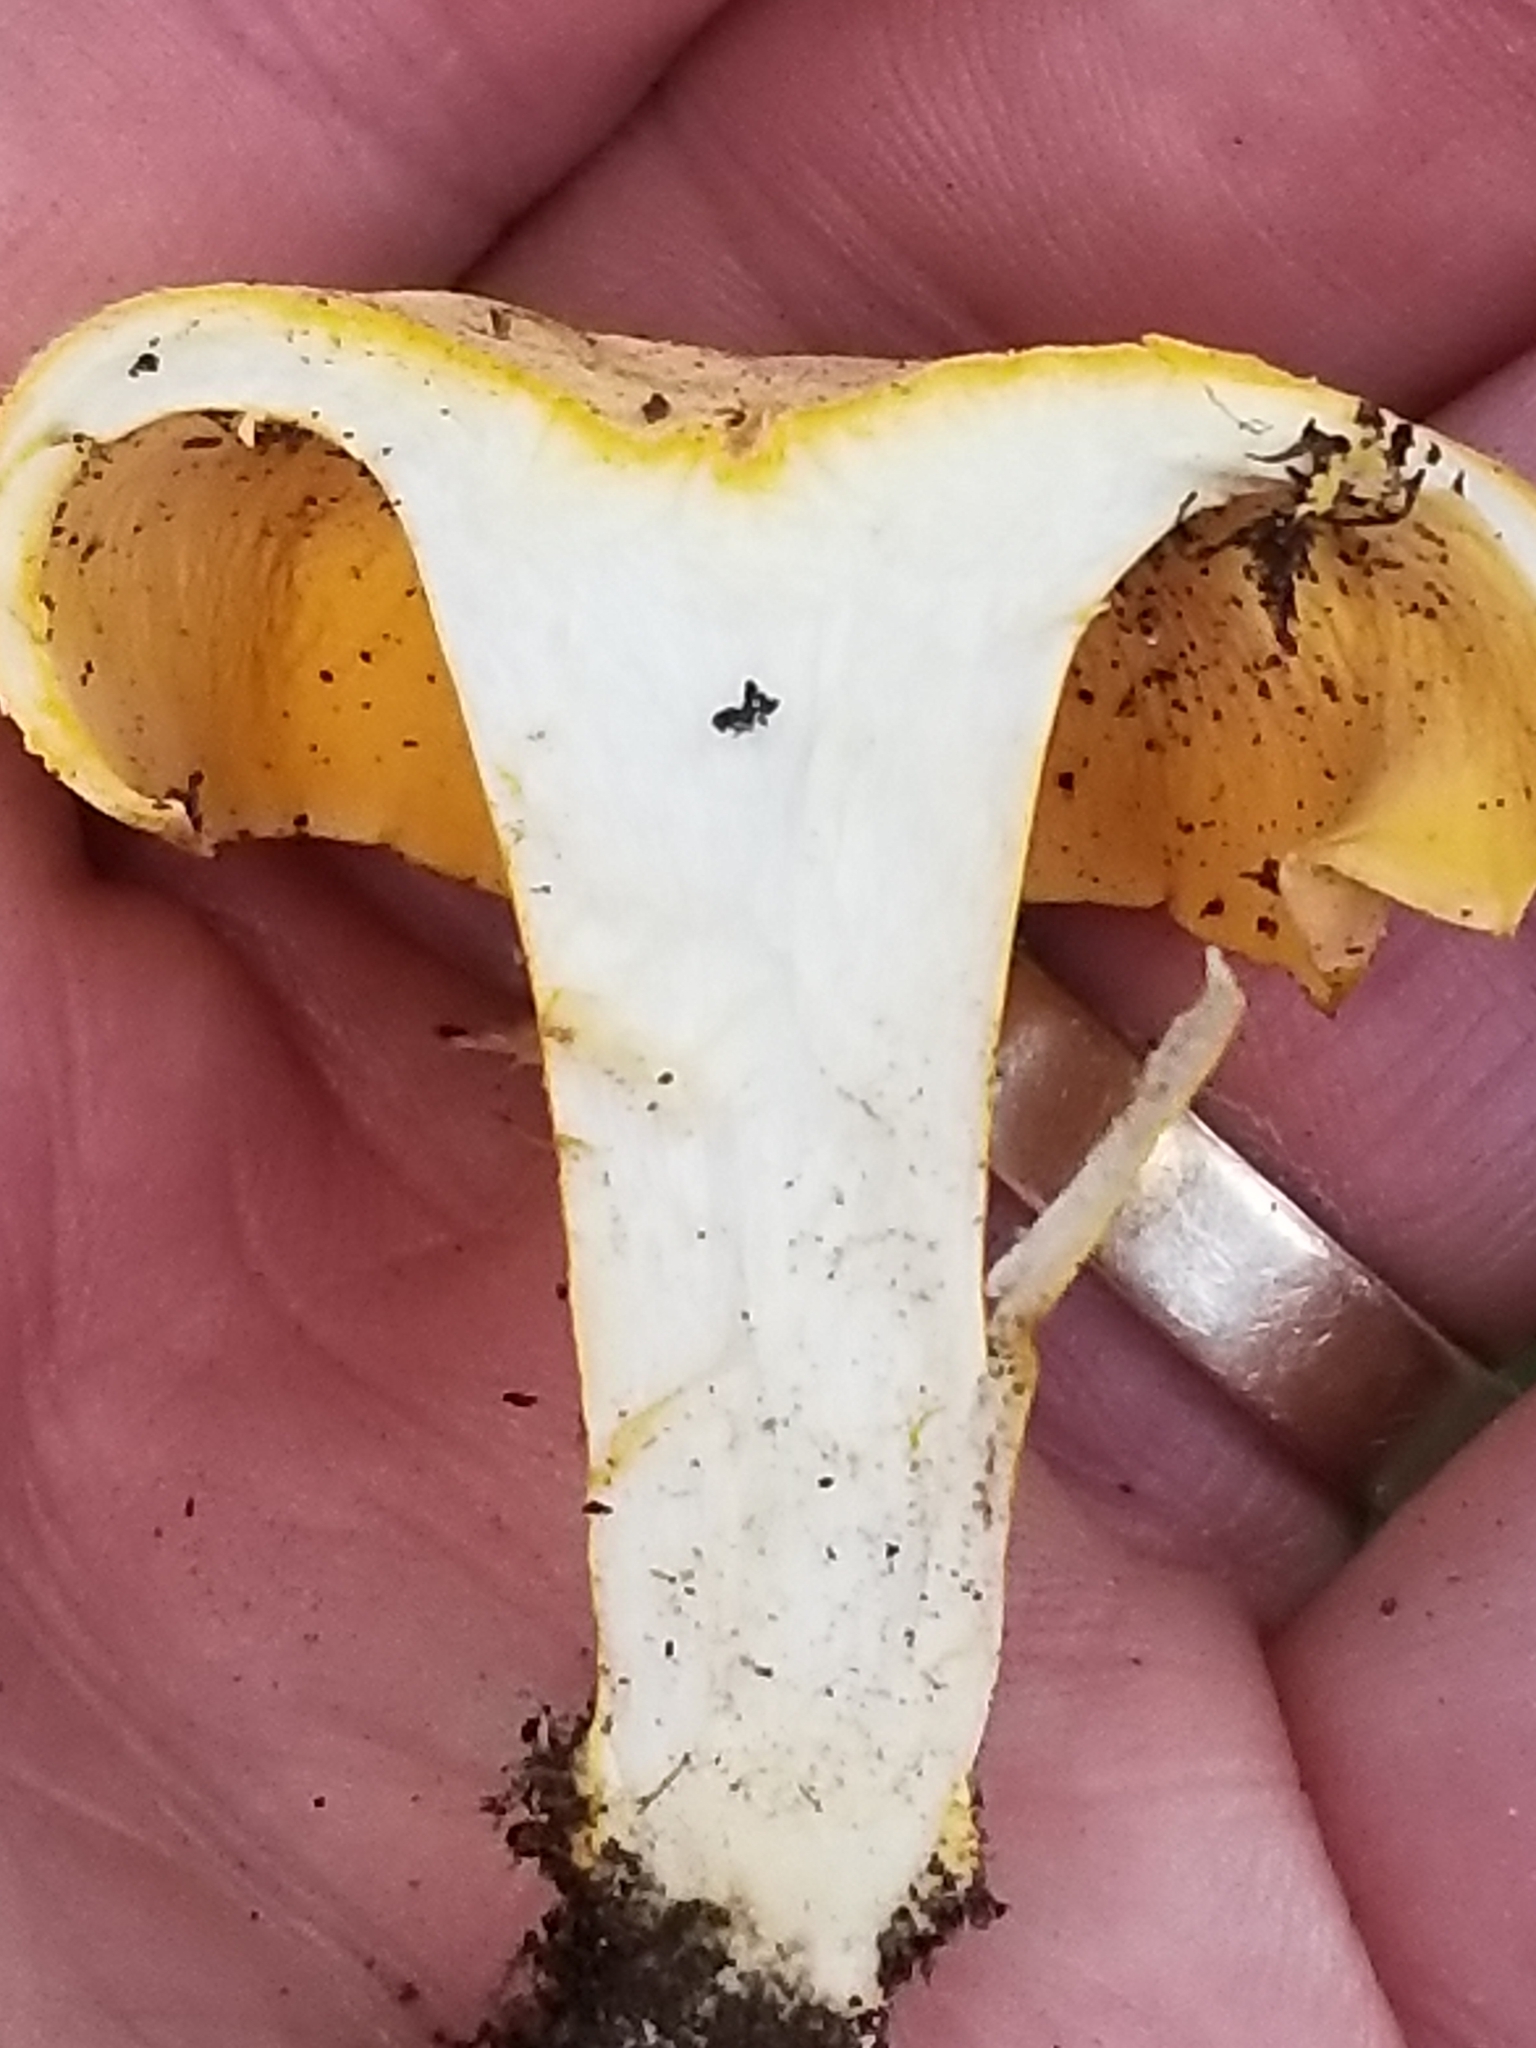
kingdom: Fungi
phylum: Basidiomycota
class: Agaricomycetes
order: Cantharellales
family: Hydnaceae
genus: Cantharellus
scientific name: Cantharellus lateritius
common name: Smooth chanterelle
